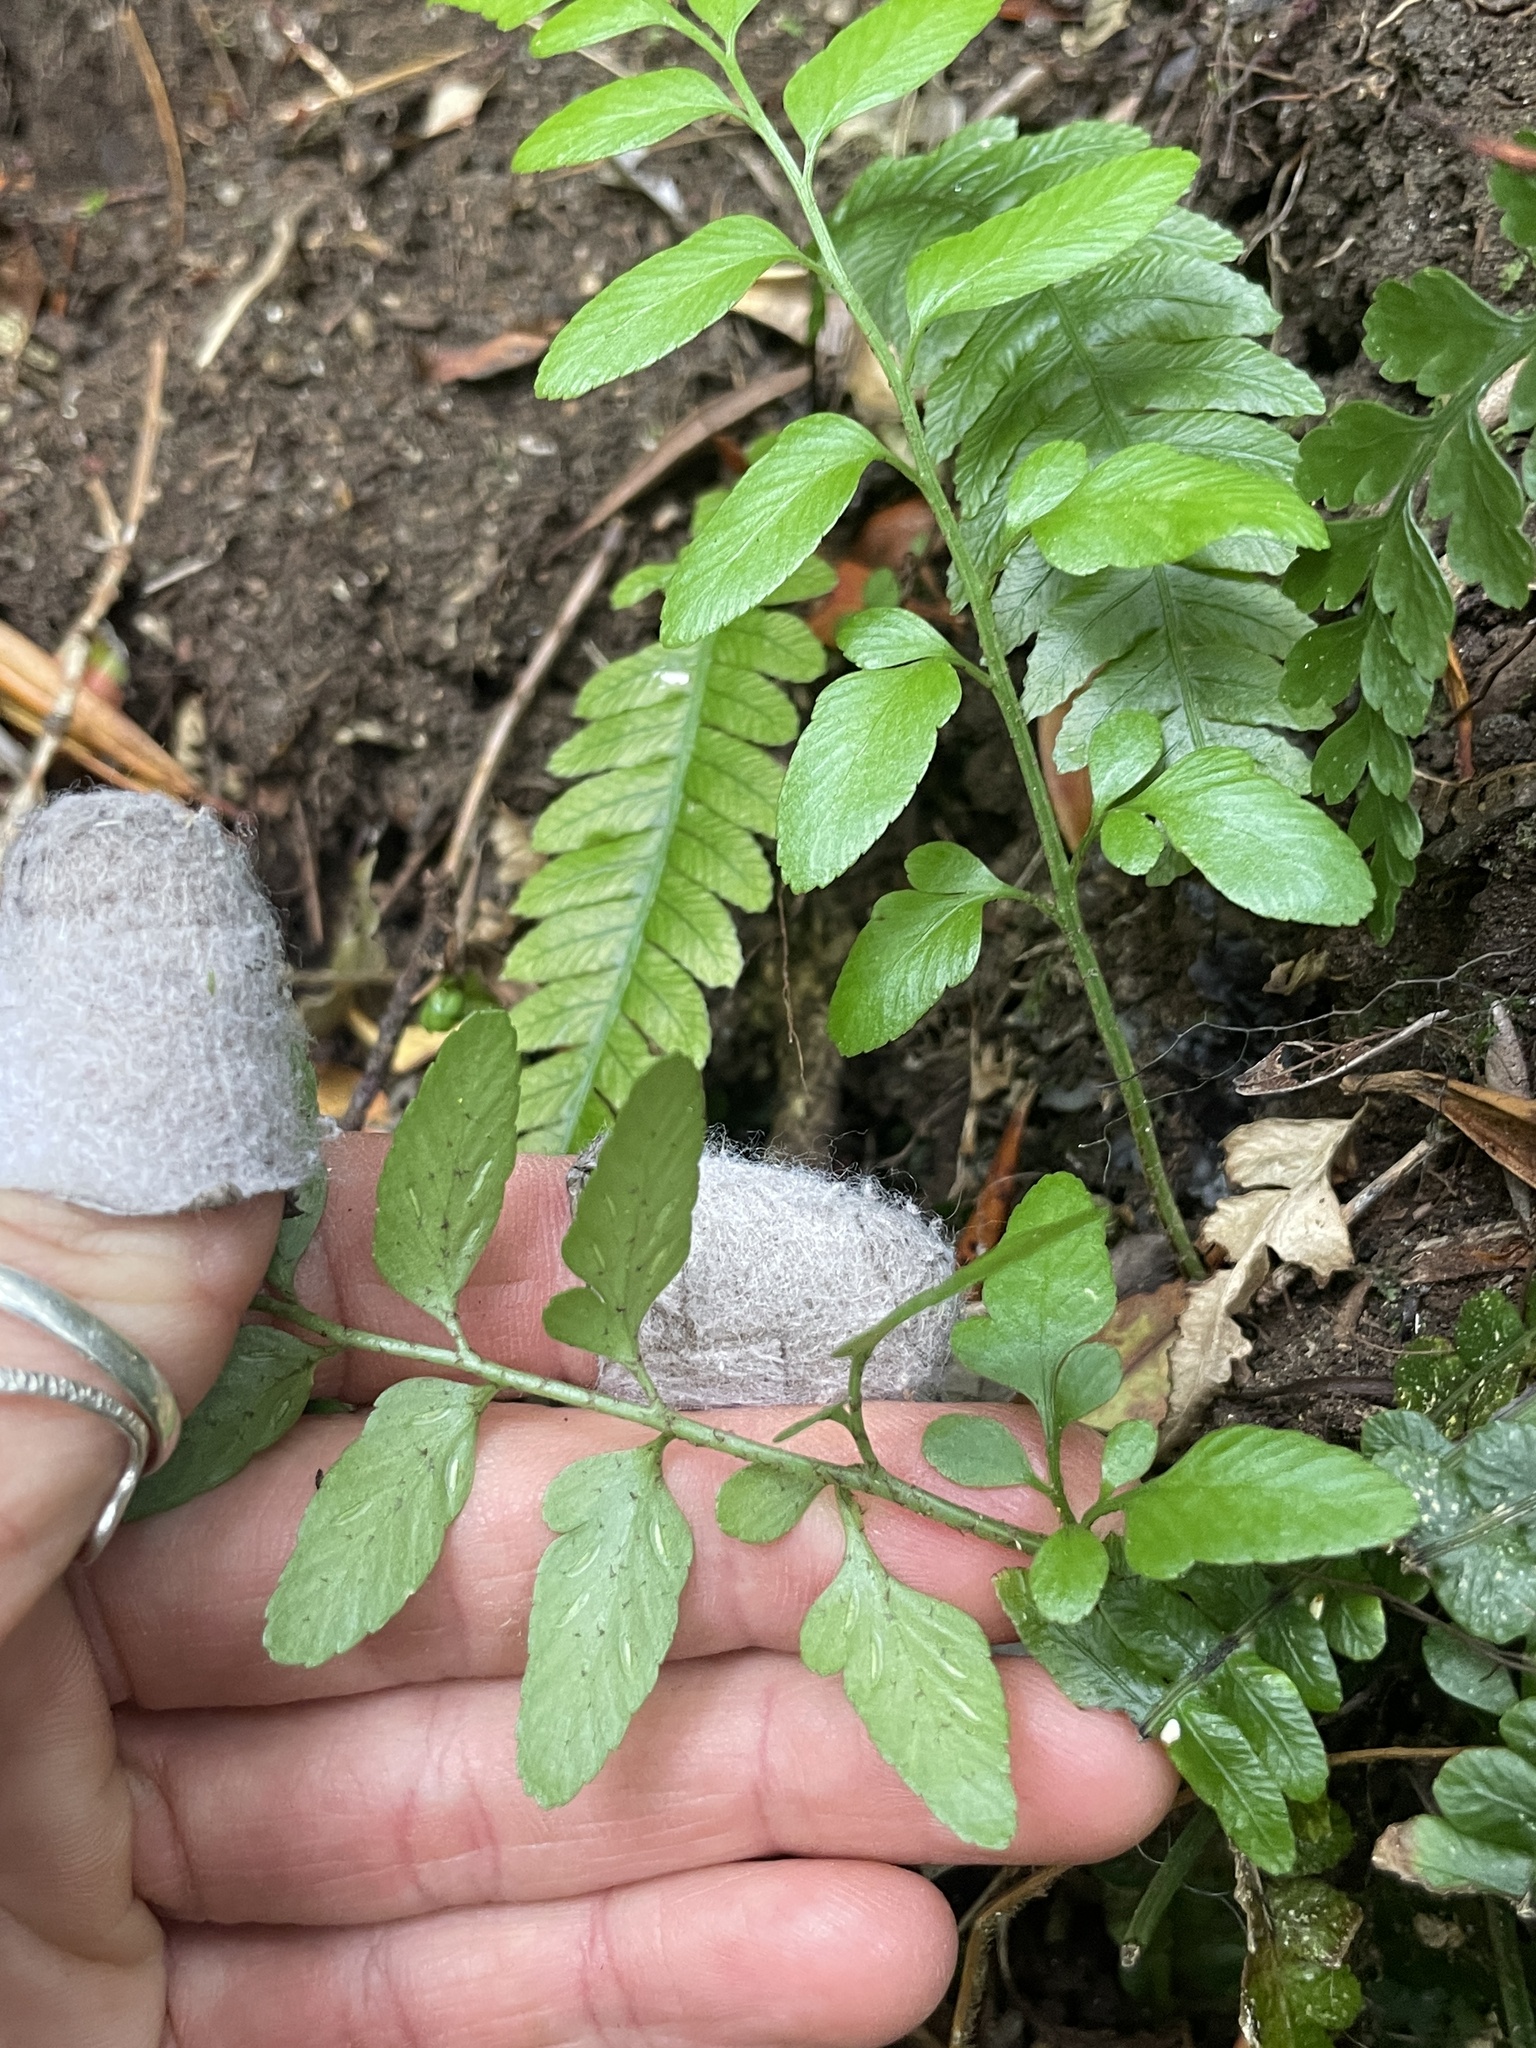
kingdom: Plantae
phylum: Tracheophyta
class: Polypodiopsida
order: Polypodiales
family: Aspleniaceae
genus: Asplenium
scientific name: Asplenium lyallii
